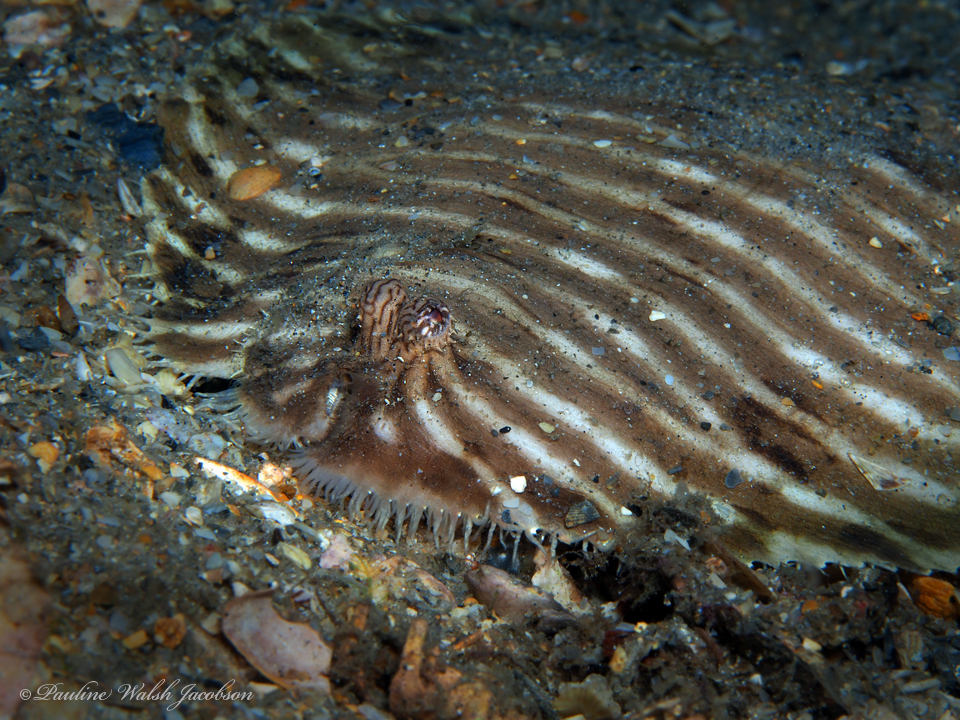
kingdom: Animalia
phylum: Chordata
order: Pleuronectiformes
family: Achiridae
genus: Gymnachirus
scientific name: Gymnachirus melas
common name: North american naked sole
